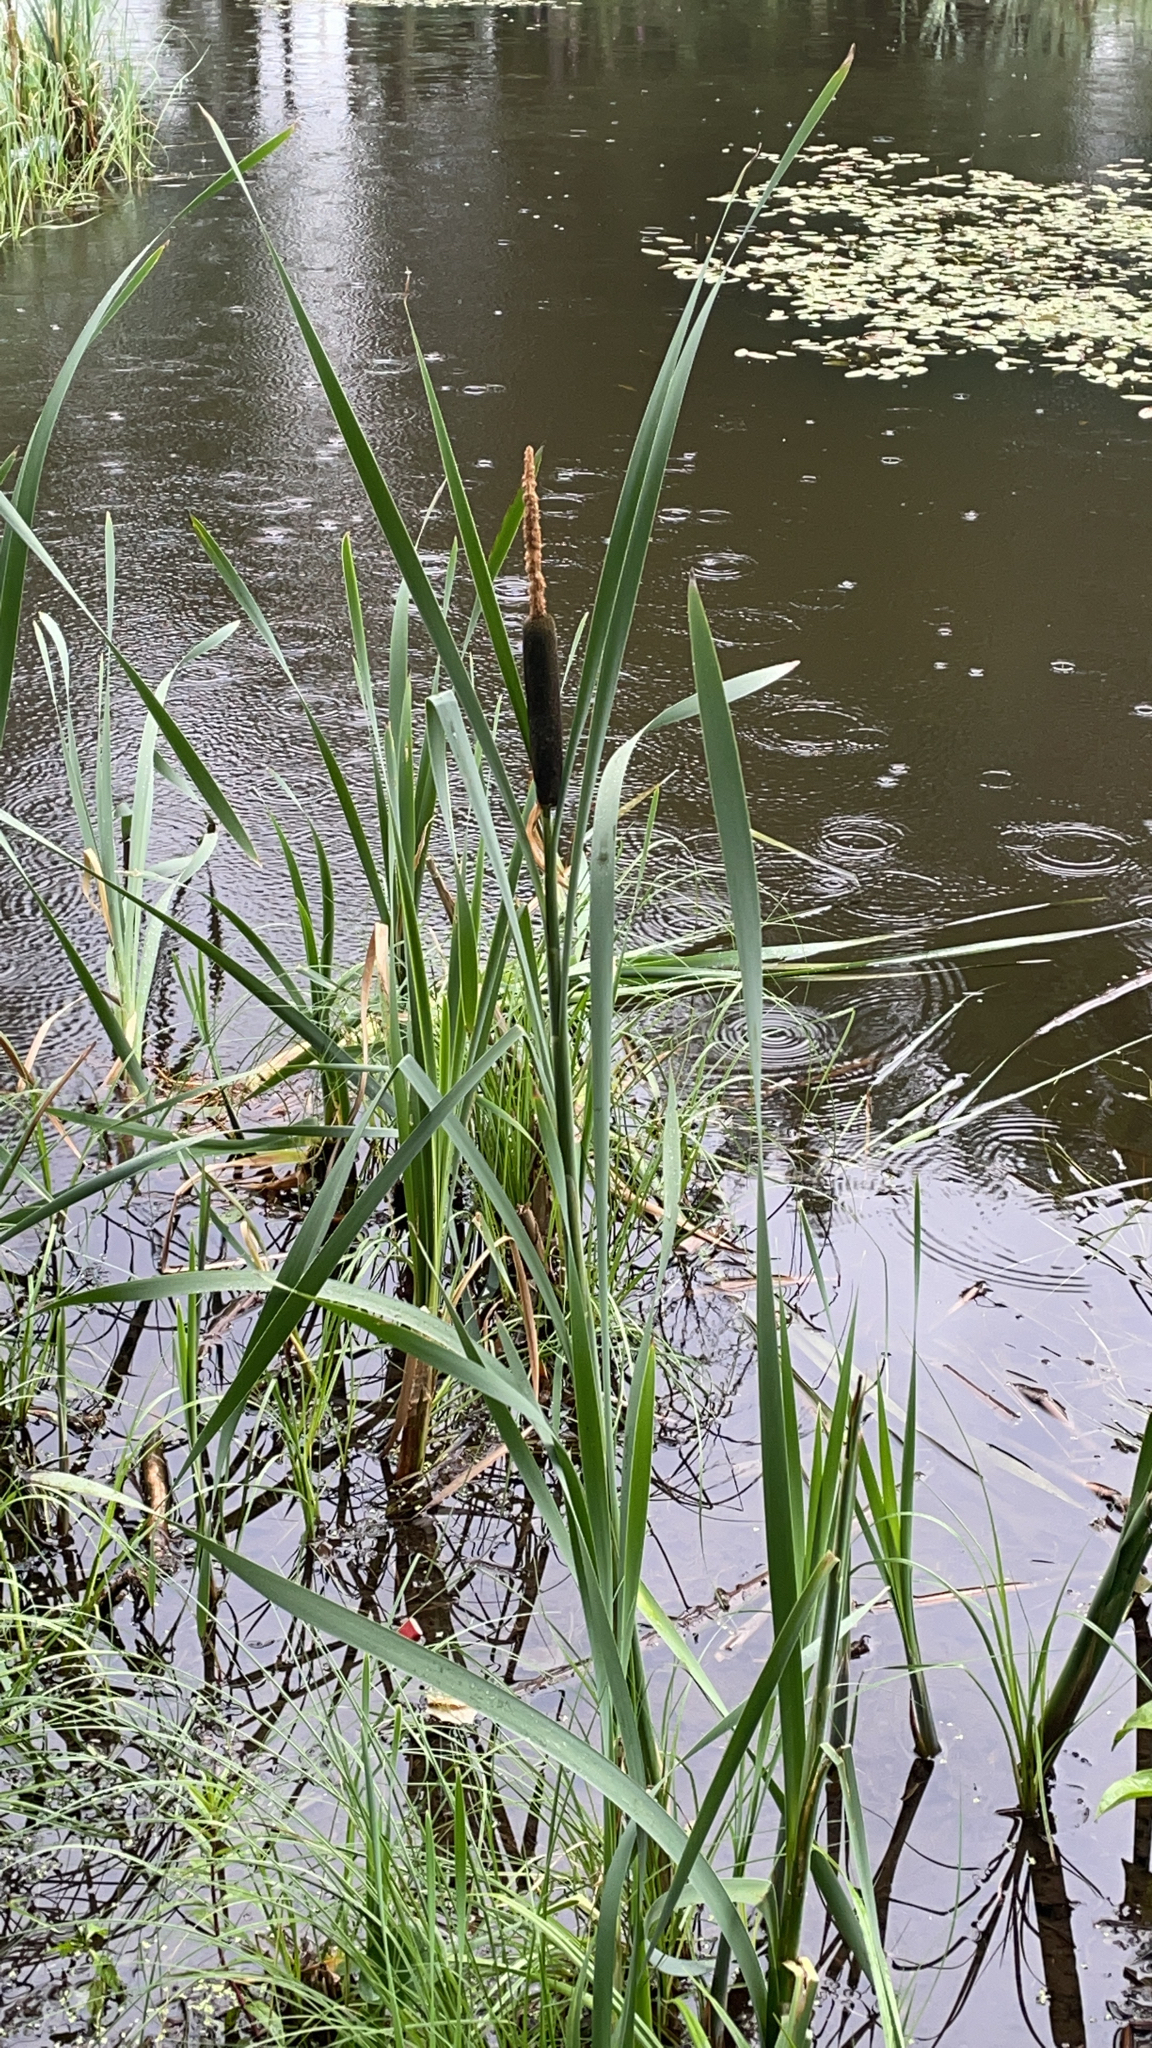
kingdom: Plantae
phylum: Tracheophyta
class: Liliopsida
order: Poales
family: Typhaceae
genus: Typha
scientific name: Typha latifolia
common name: Broadleaf cattail
